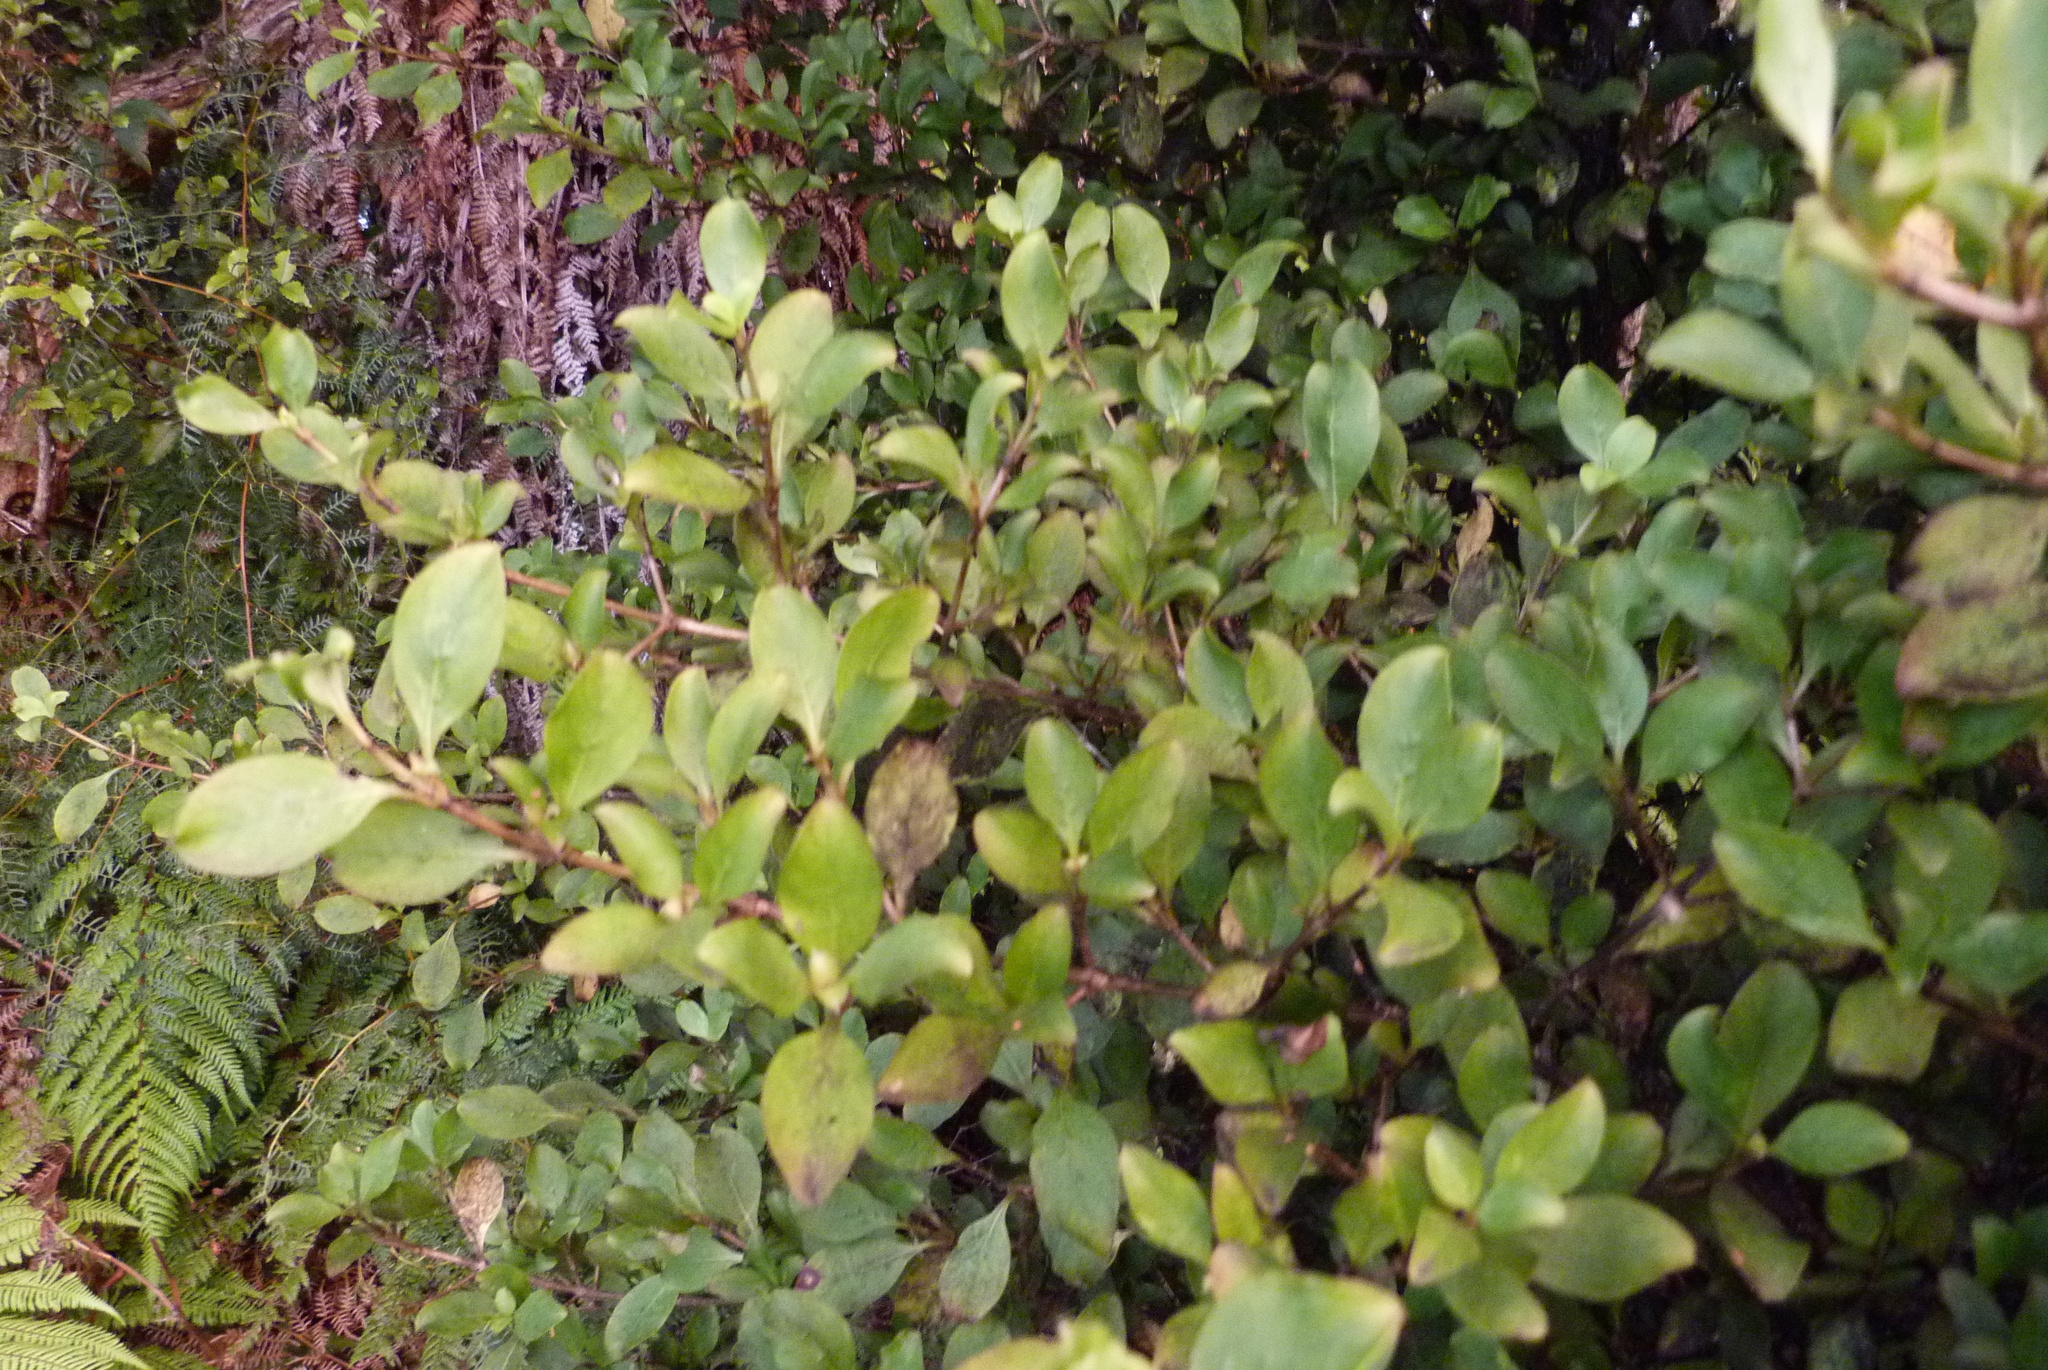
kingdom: Plantae
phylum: Tracheophyta
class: Magnoliopsida
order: Gentianales
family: Rubiaceae
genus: Coprosma
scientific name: Coprosma foetidissima
